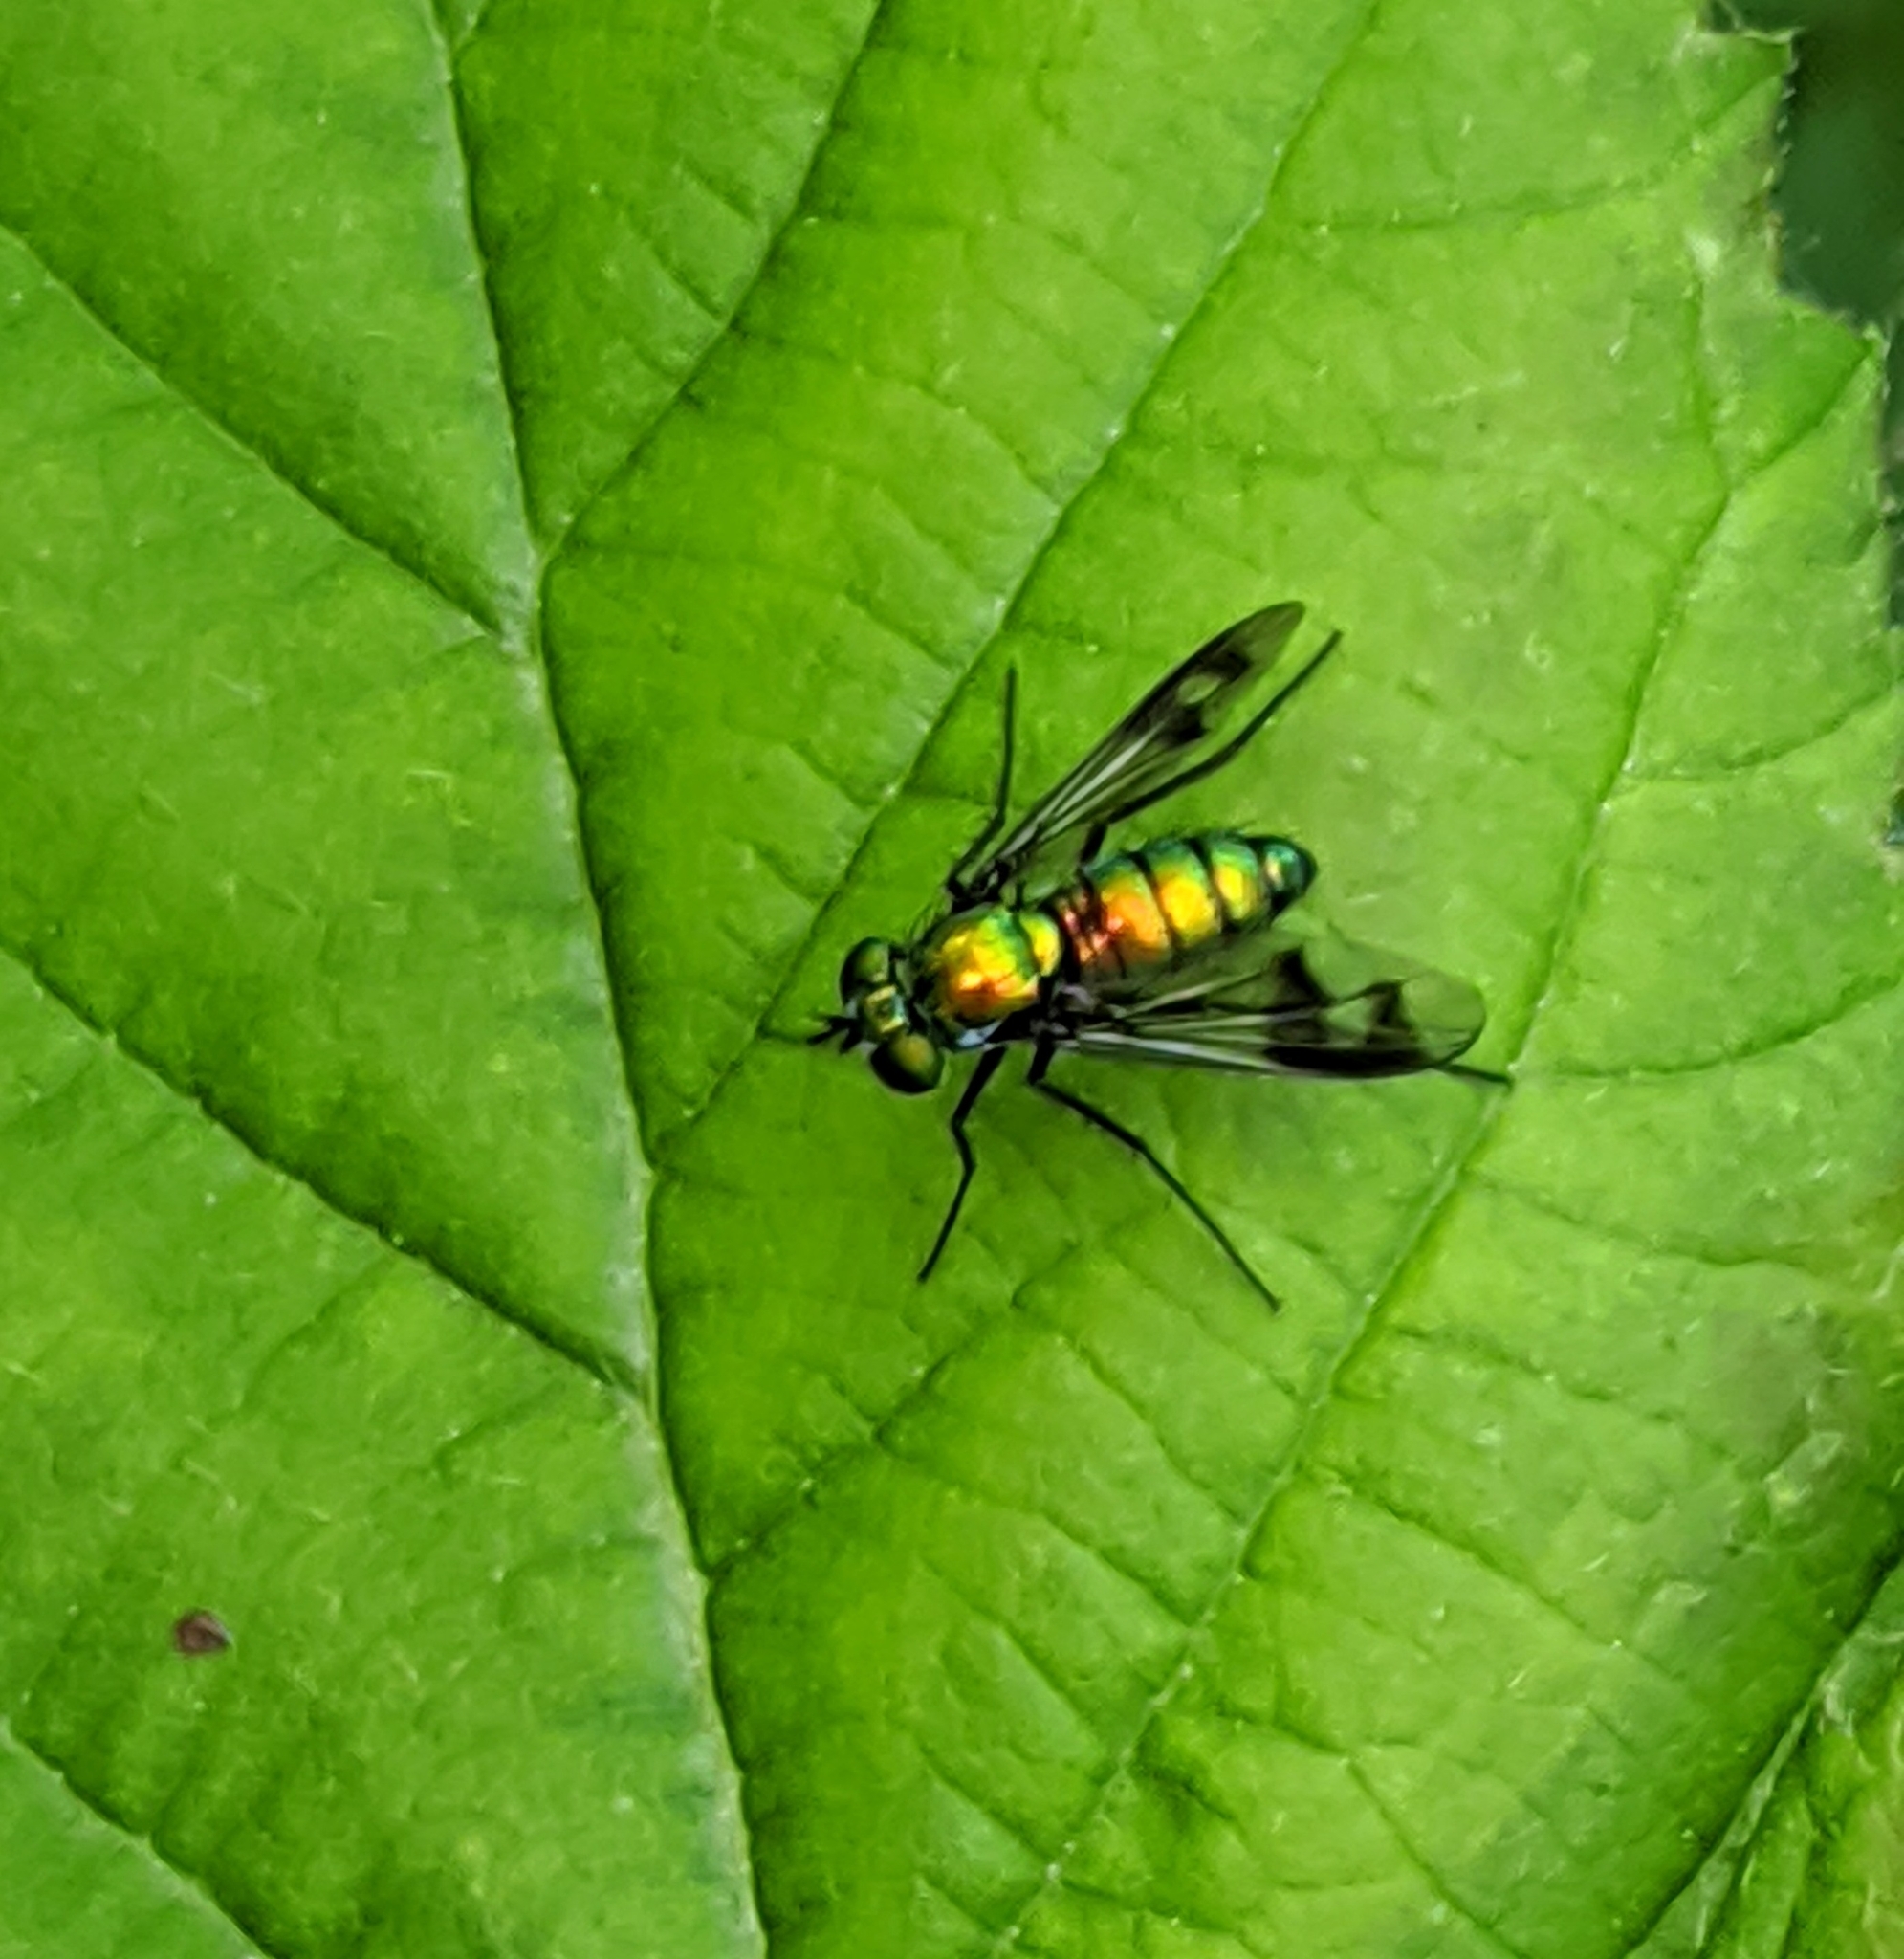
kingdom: Animalia
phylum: Arthropoda
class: Insecta
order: Diptera
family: Dolichopodidae
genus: Condylostylus
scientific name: Condylostylus occidentalis
